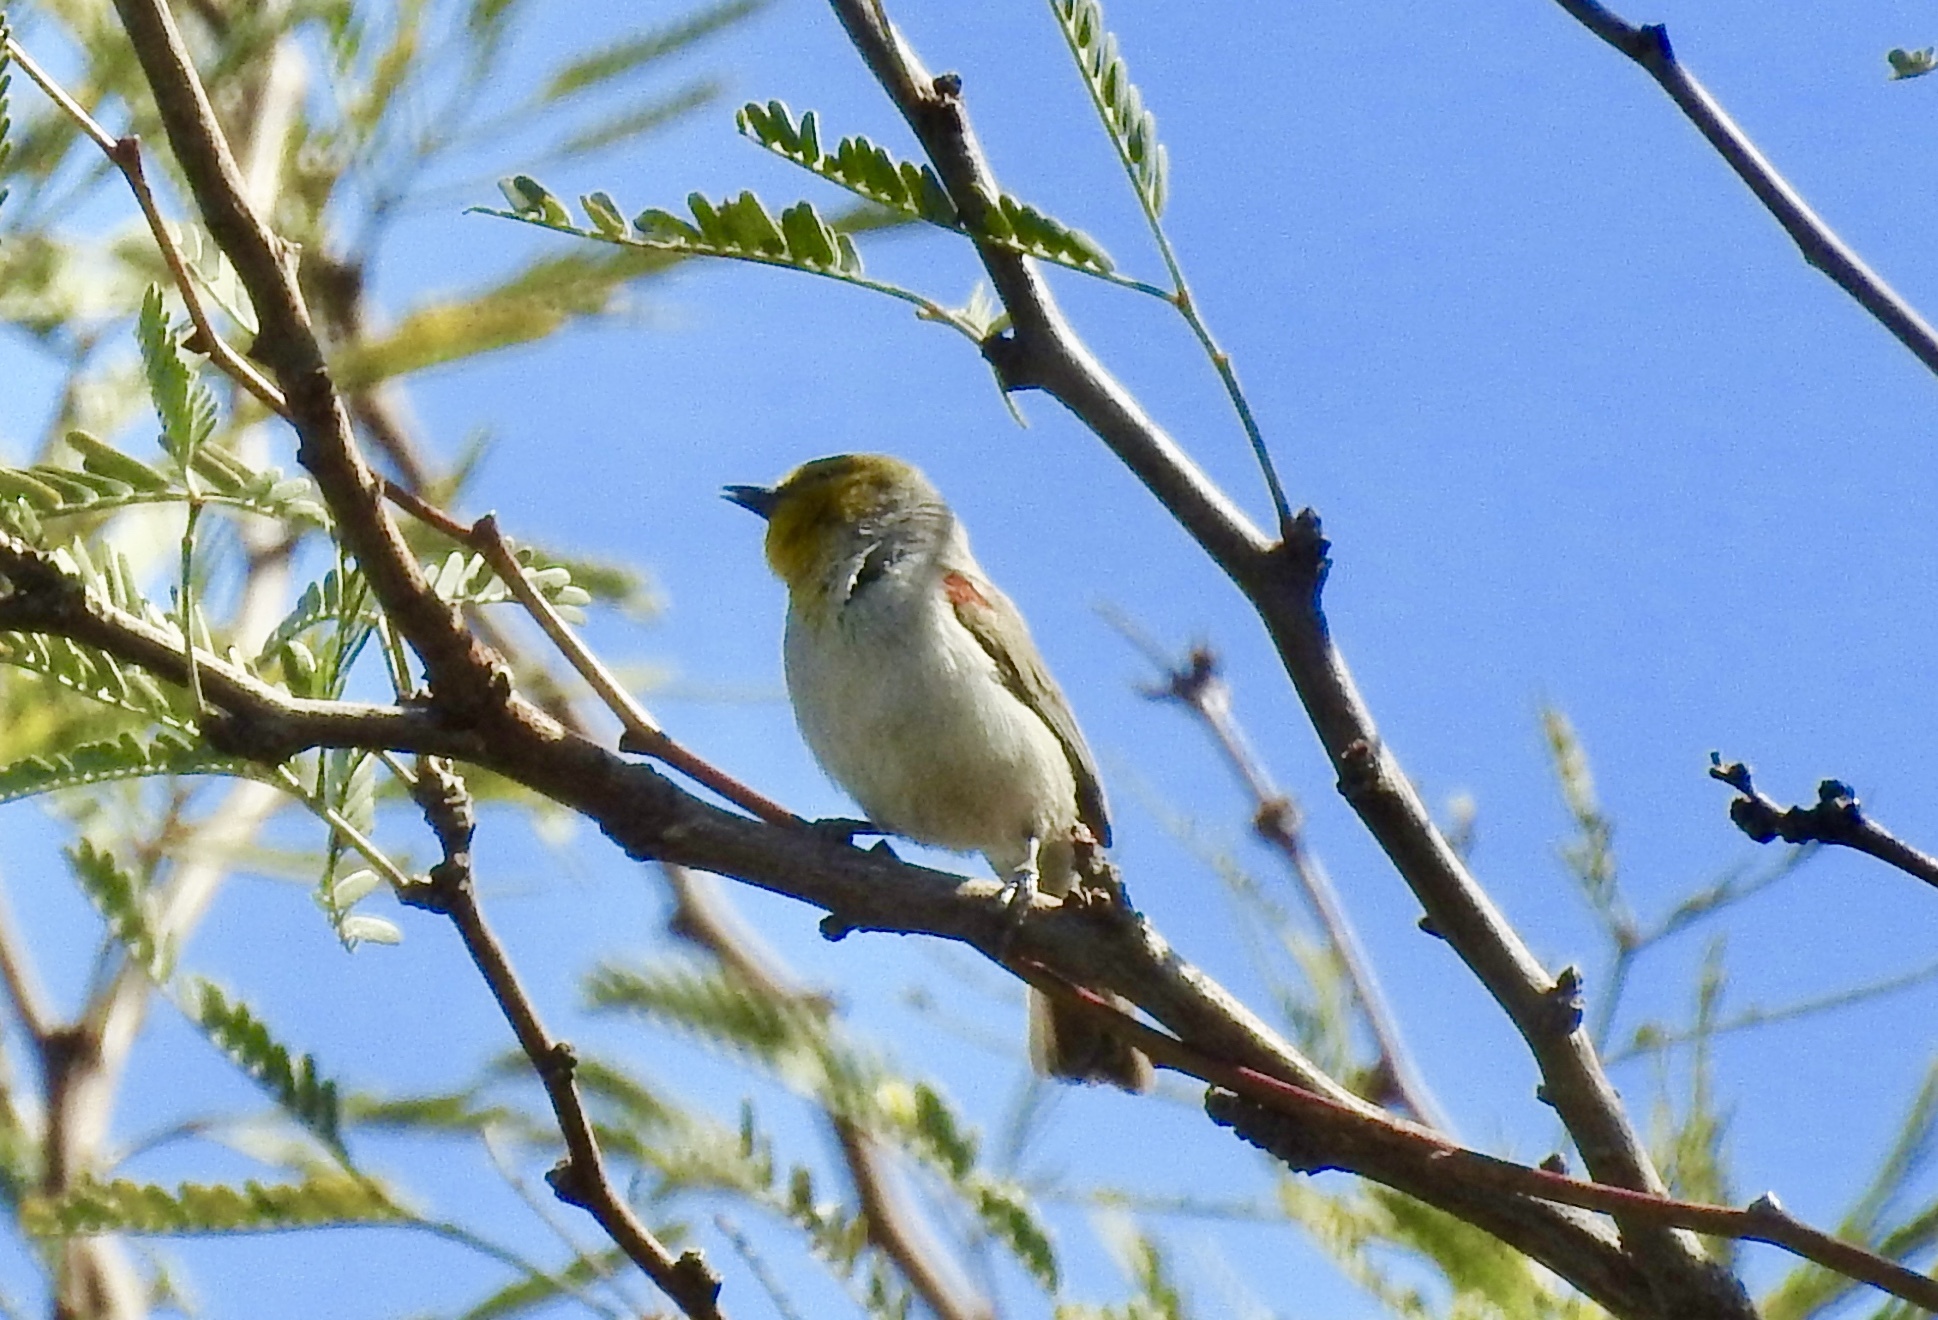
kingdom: Animalia
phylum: Chordata
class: Aves
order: Passeriformes
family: Remizidae
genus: Auriparus
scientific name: Auriparus flaviceps
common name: Verdin
